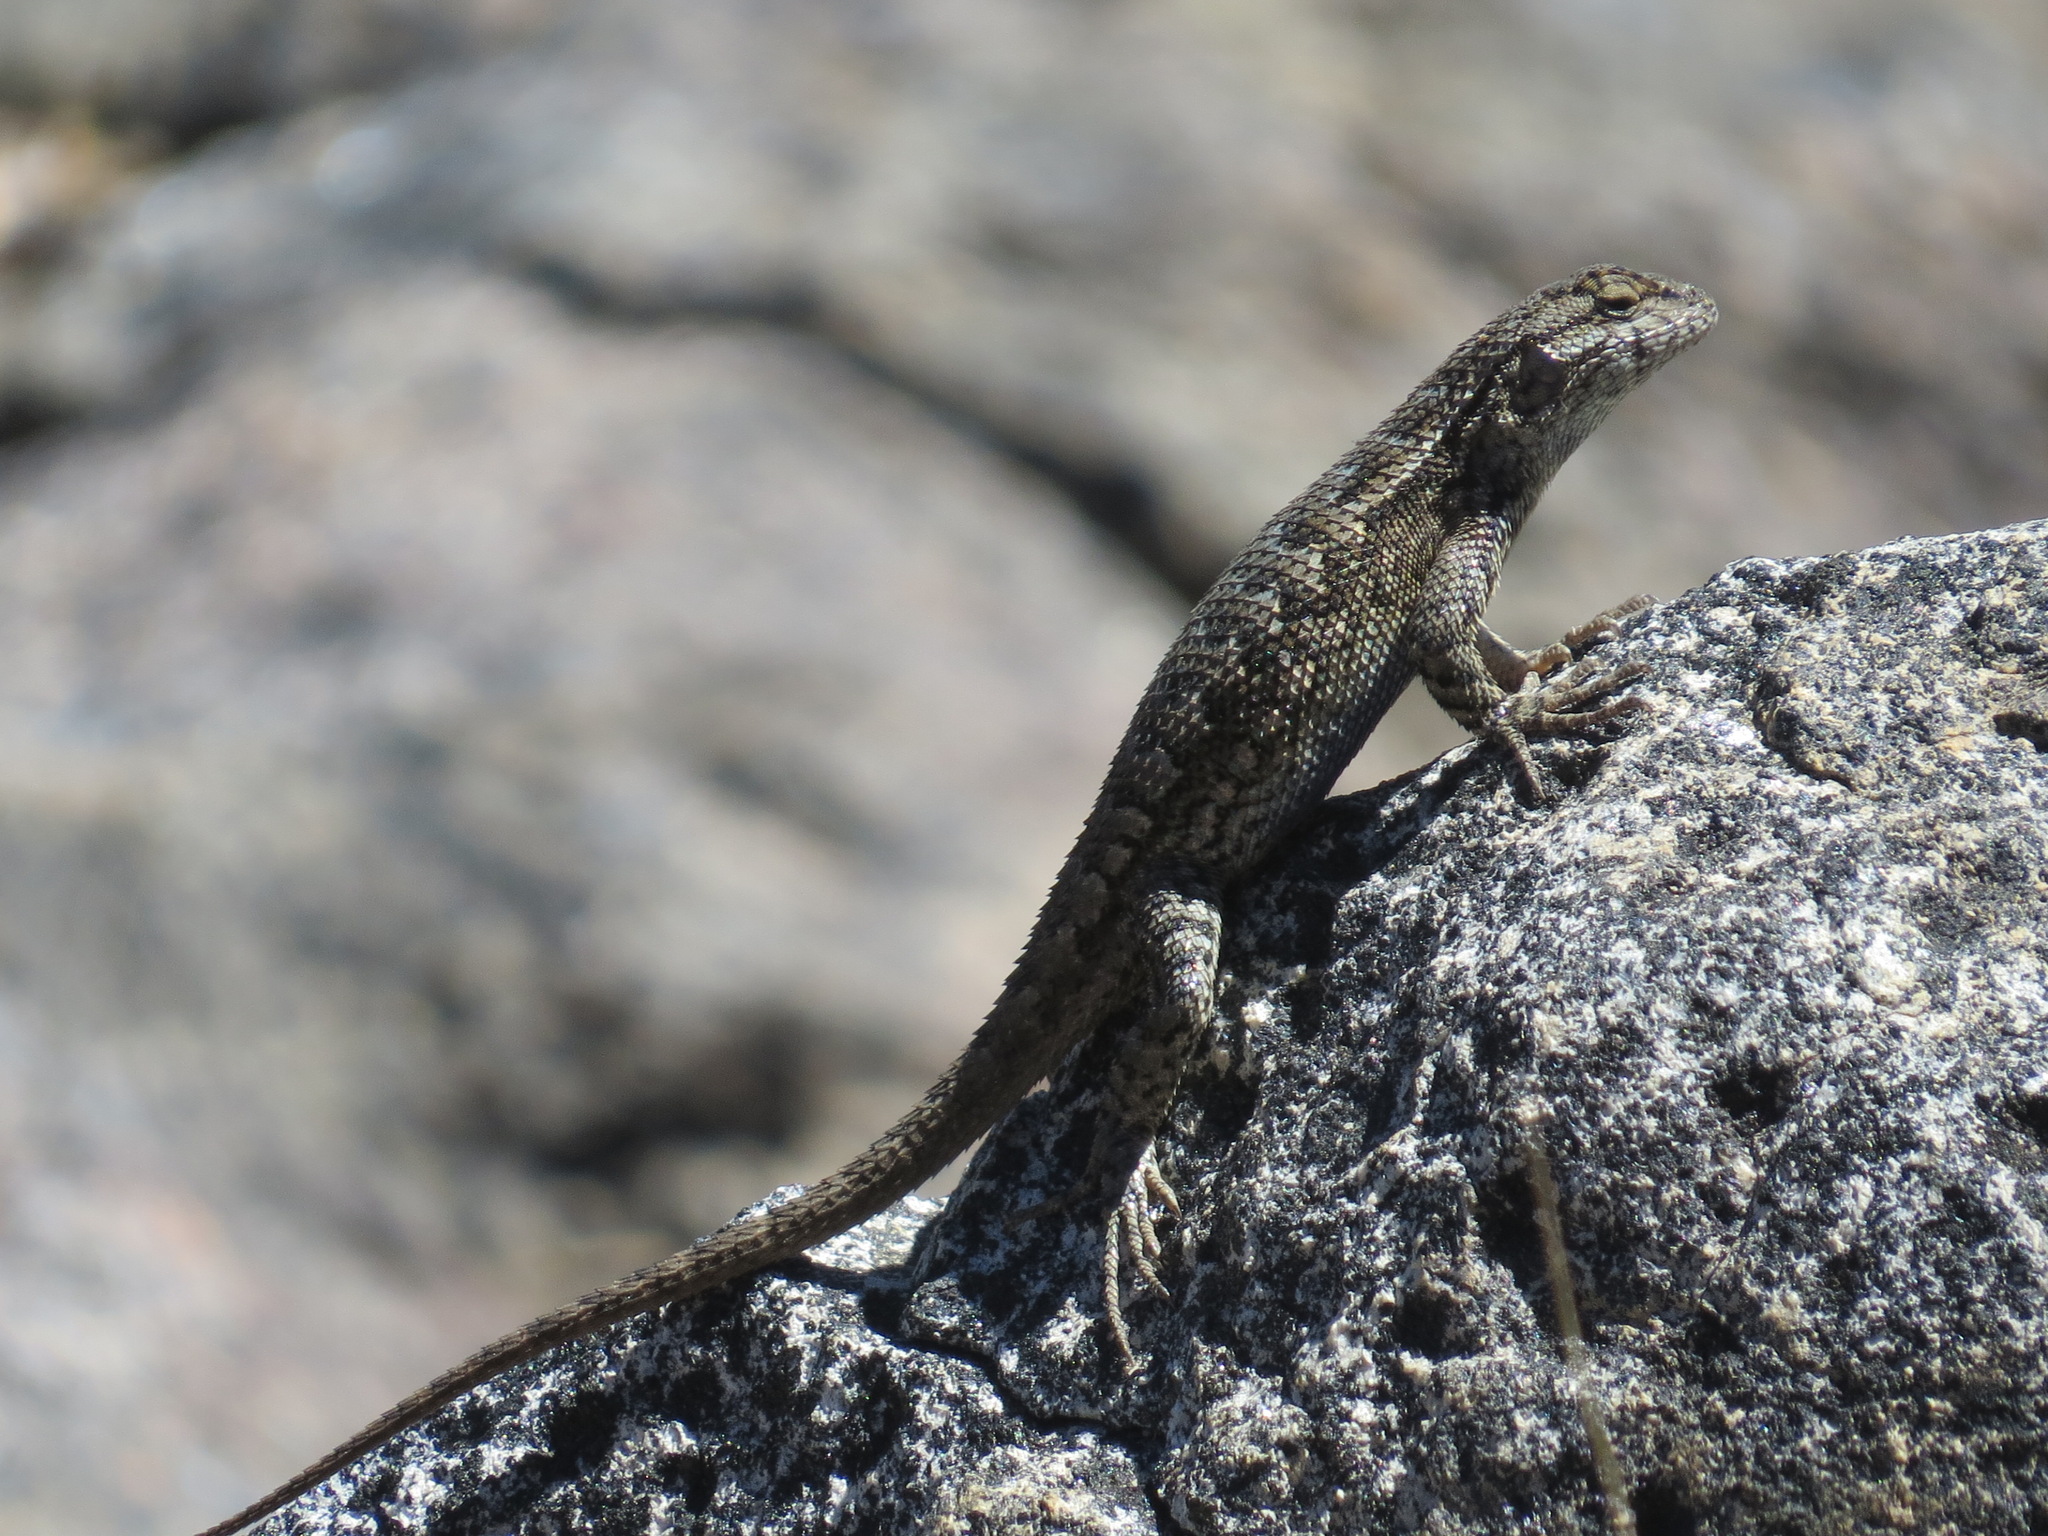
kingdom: Animalia
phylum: Chordata
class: Squamata
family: Phrynosomatidae
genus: Sceloporus
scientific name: Sceloporus occidentalis
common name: Western fence lizard
